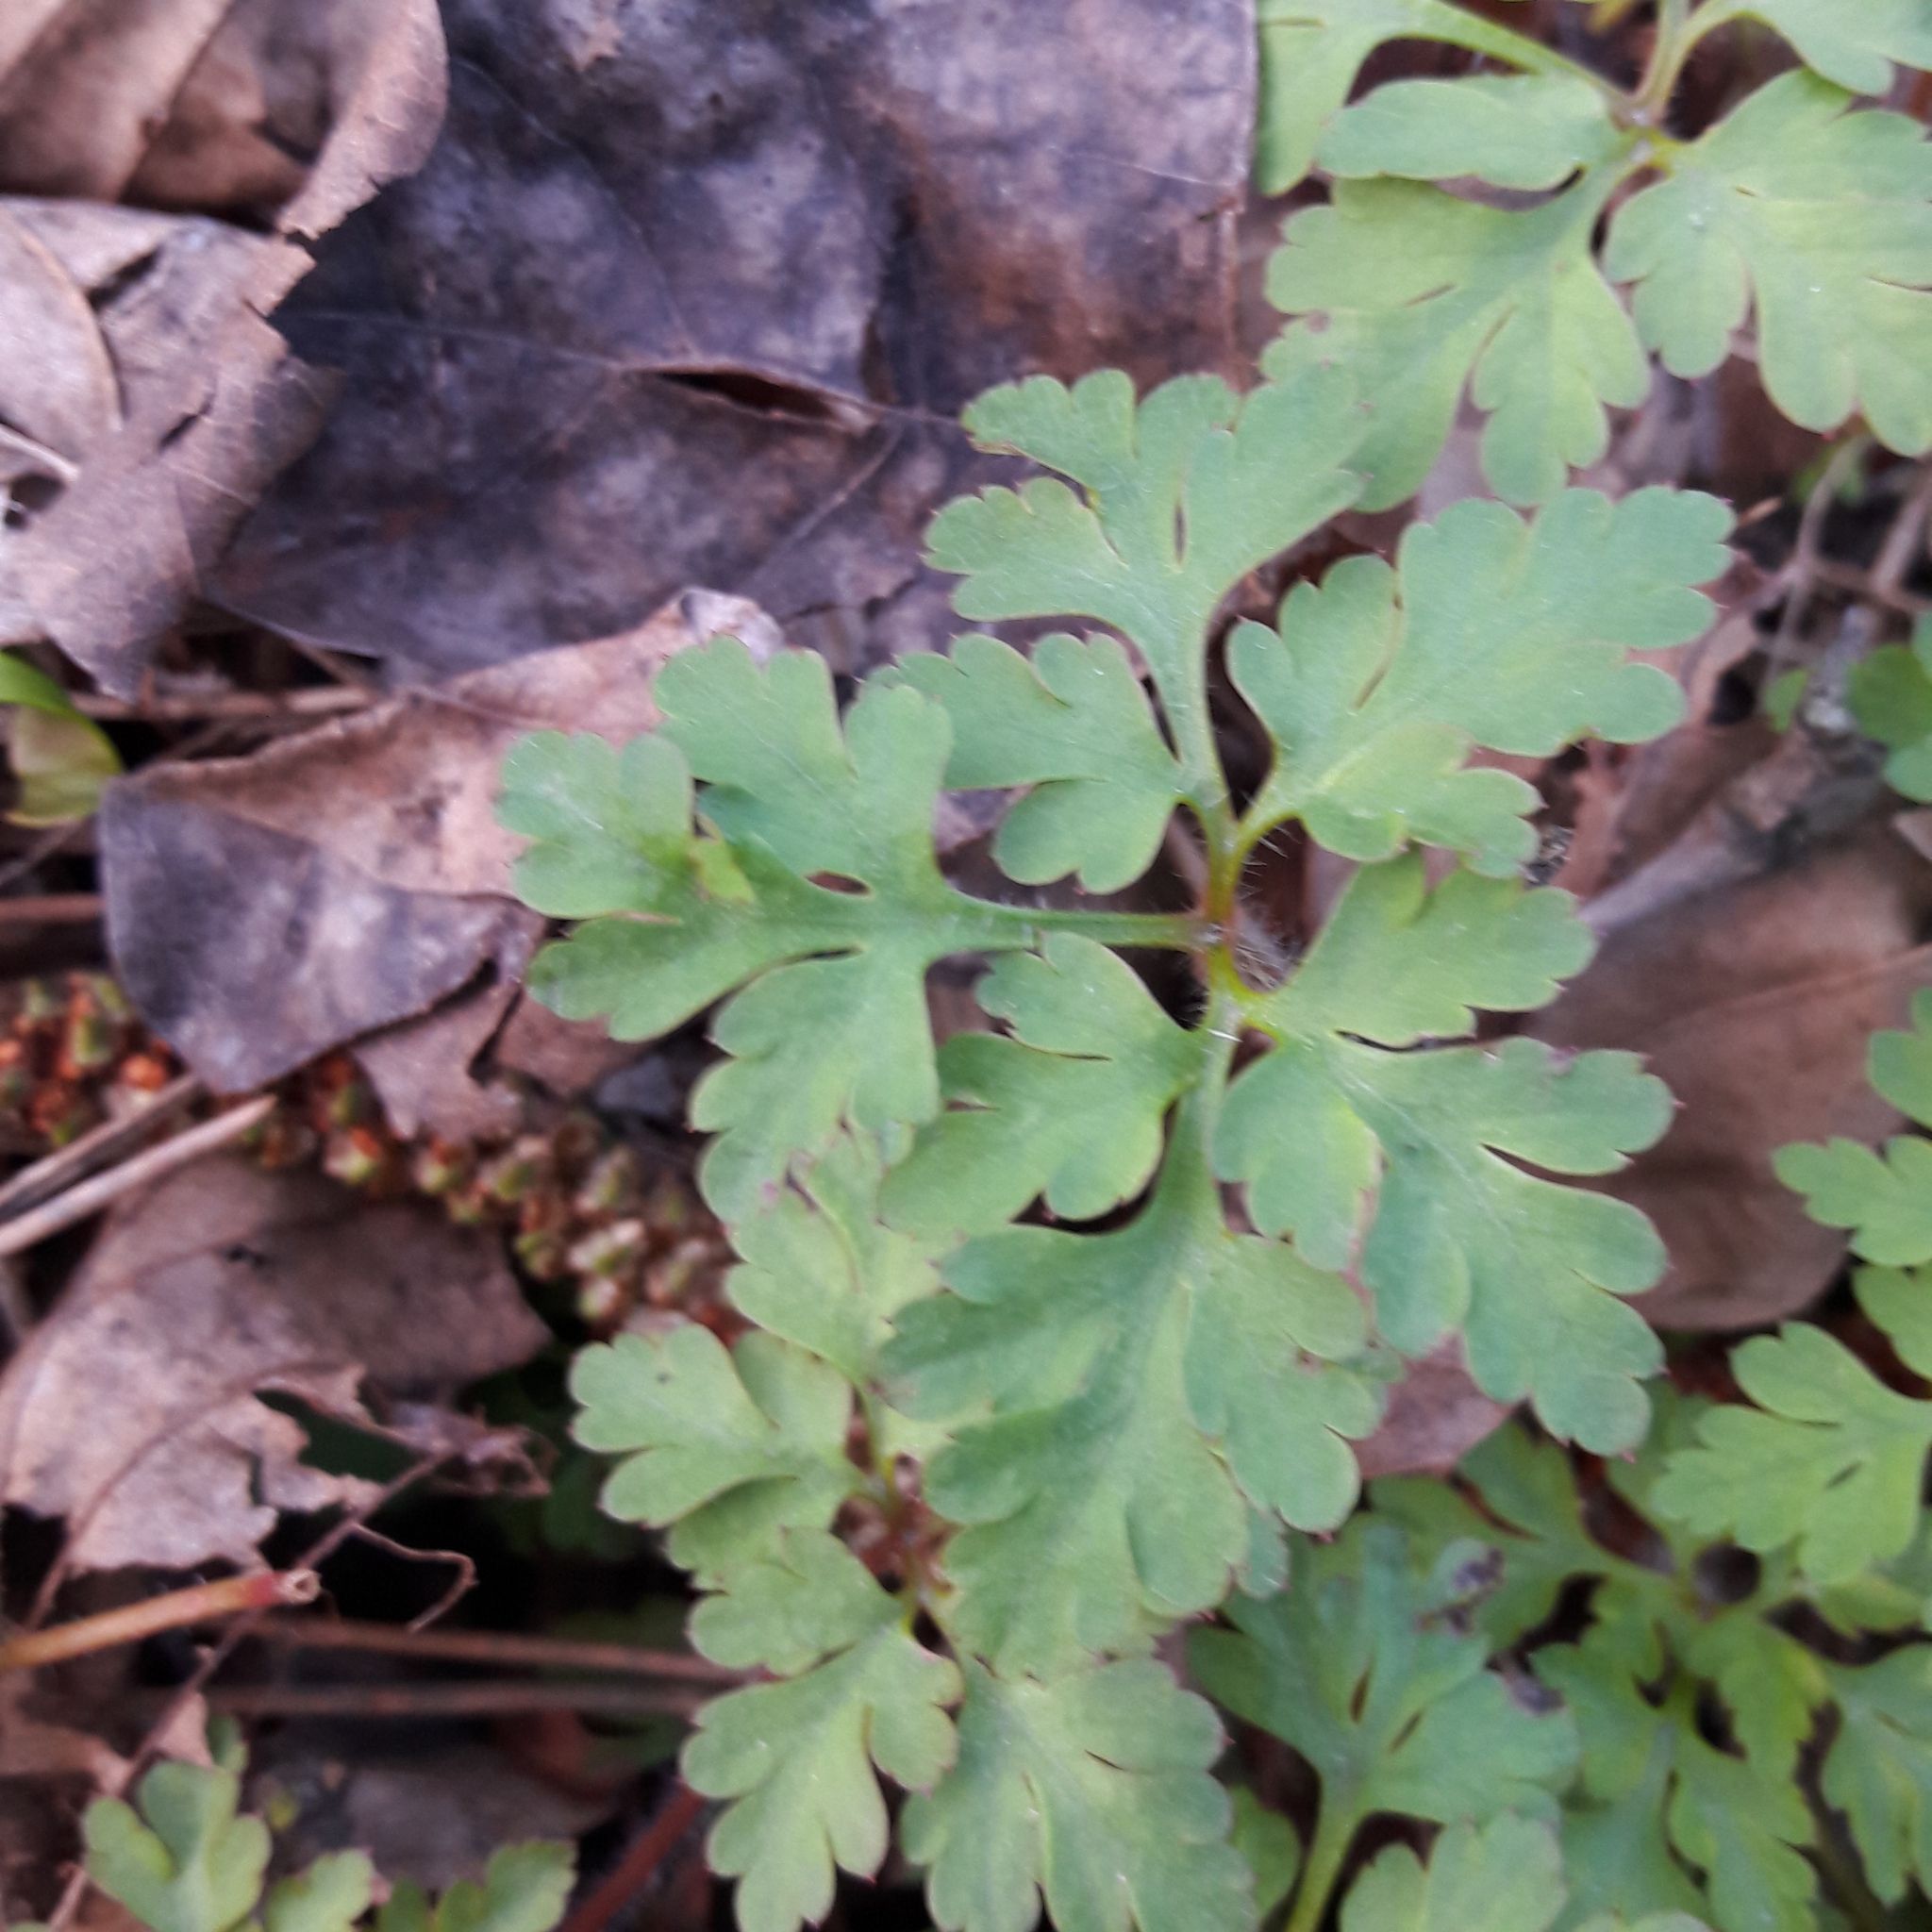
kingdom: Plantae
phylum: Tracheophyta
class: Magnoliopsida
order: Geraniales
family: Geraniaceae
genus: Geranium
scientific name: Geranium robertianum
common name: Herb-robert
